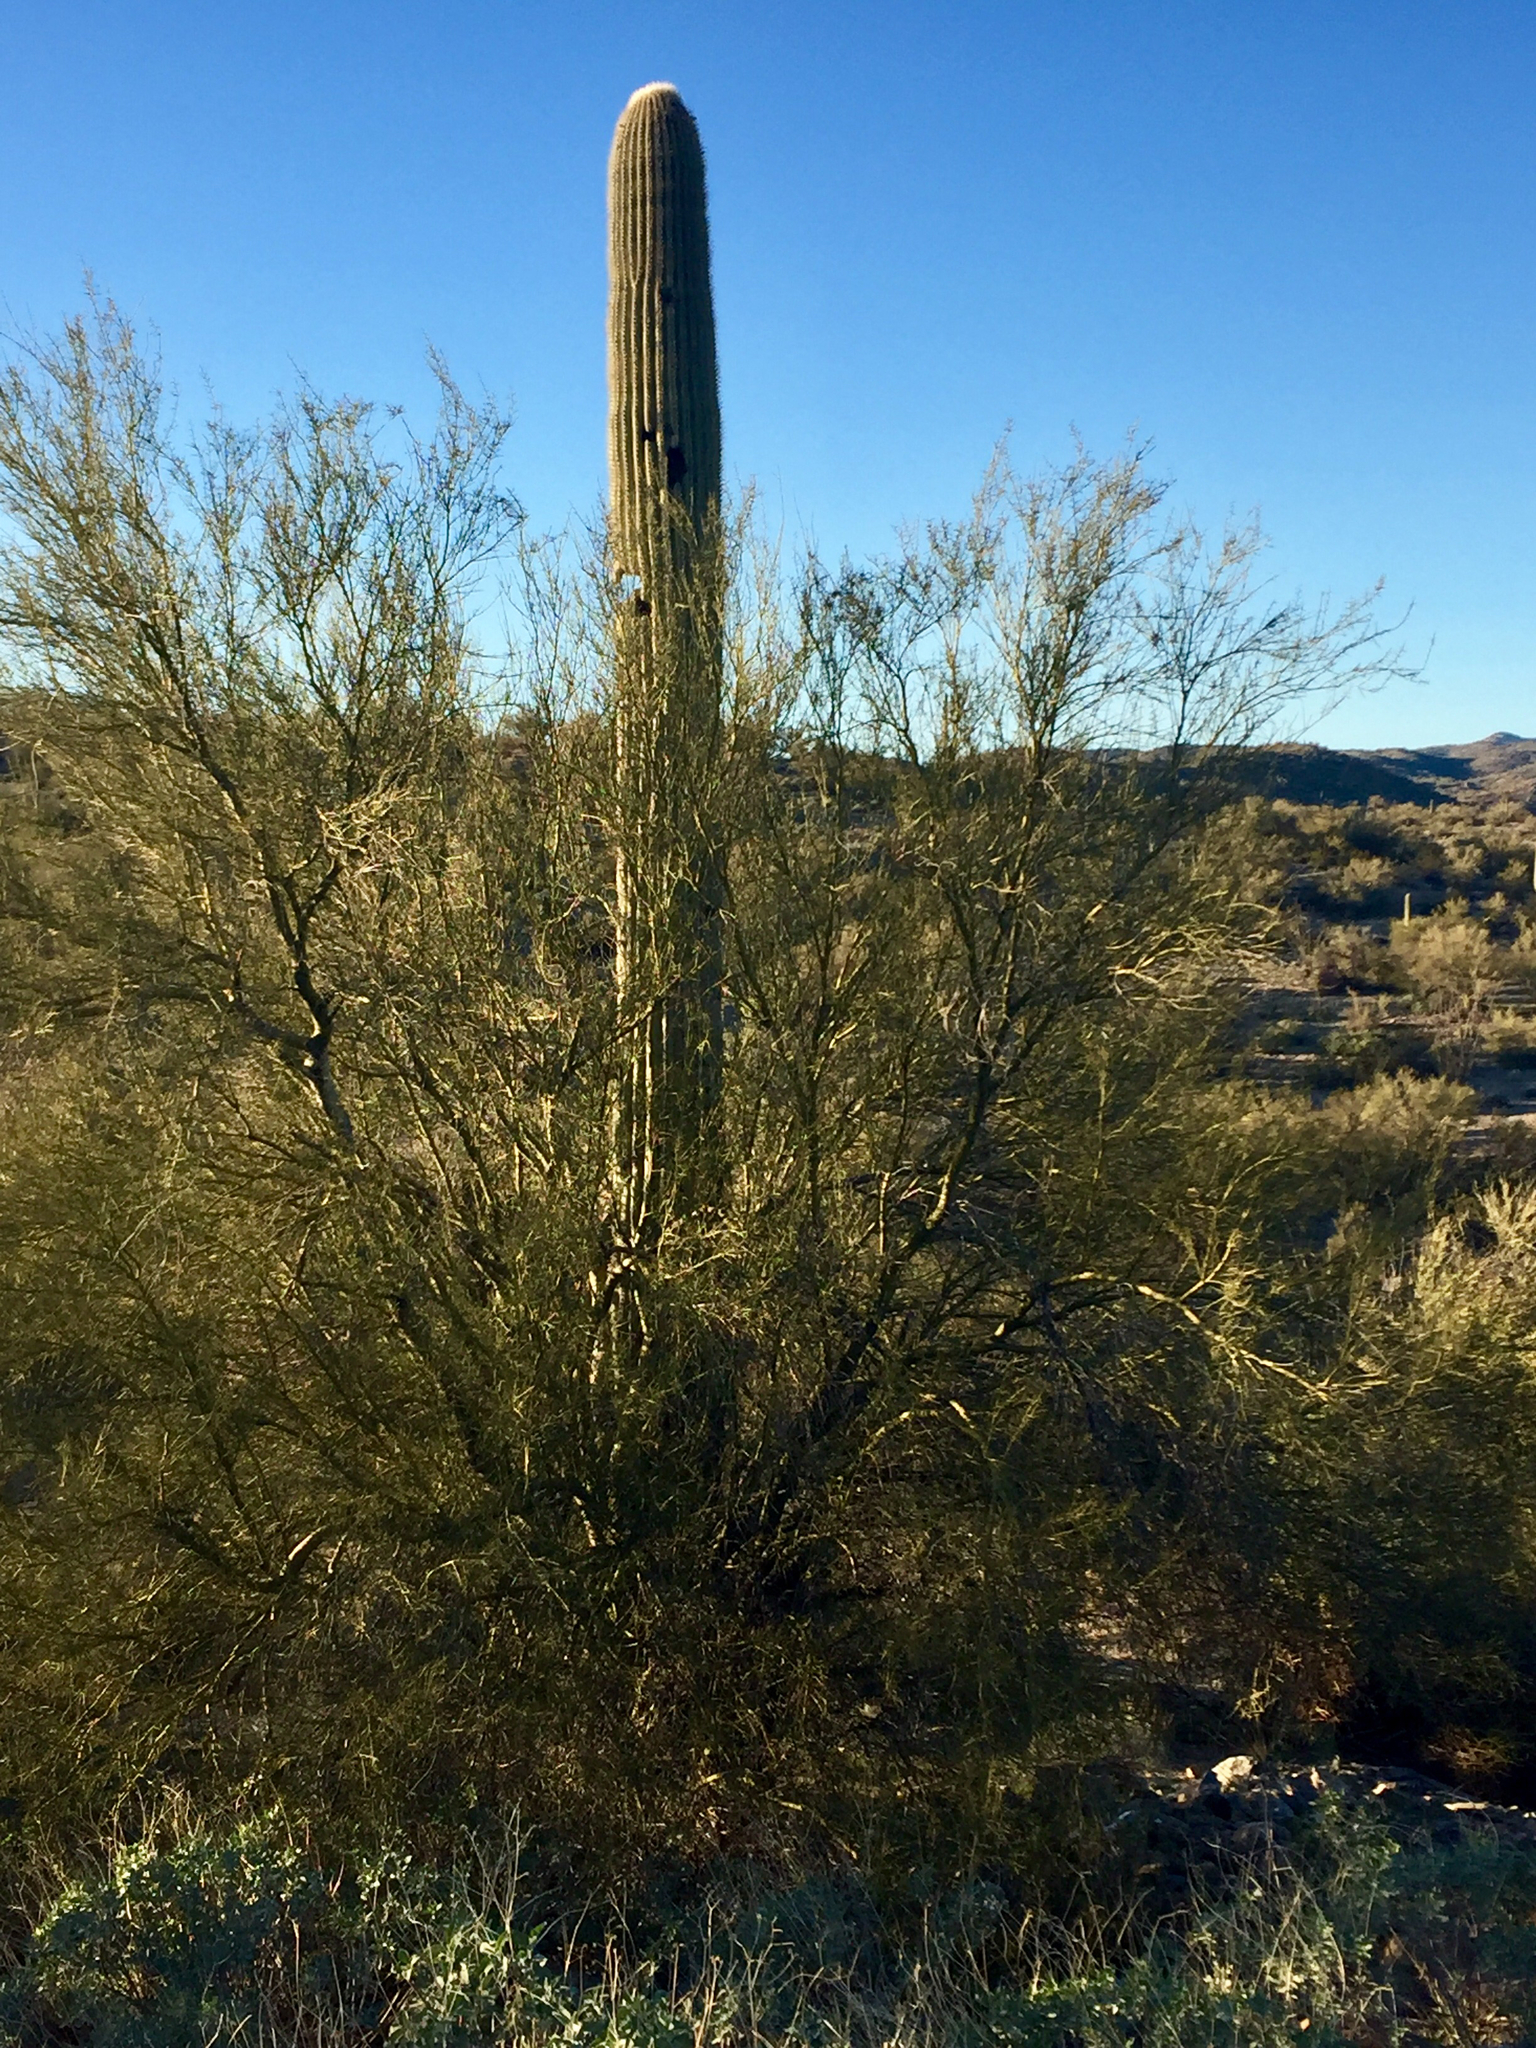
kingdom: Plantae
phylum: Tracheophyta
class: Magnoliopsida
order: Caryophyllales
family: Cactaceae
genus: Carnegiea
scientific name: Carnegiea gigantea
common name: Saguaro
